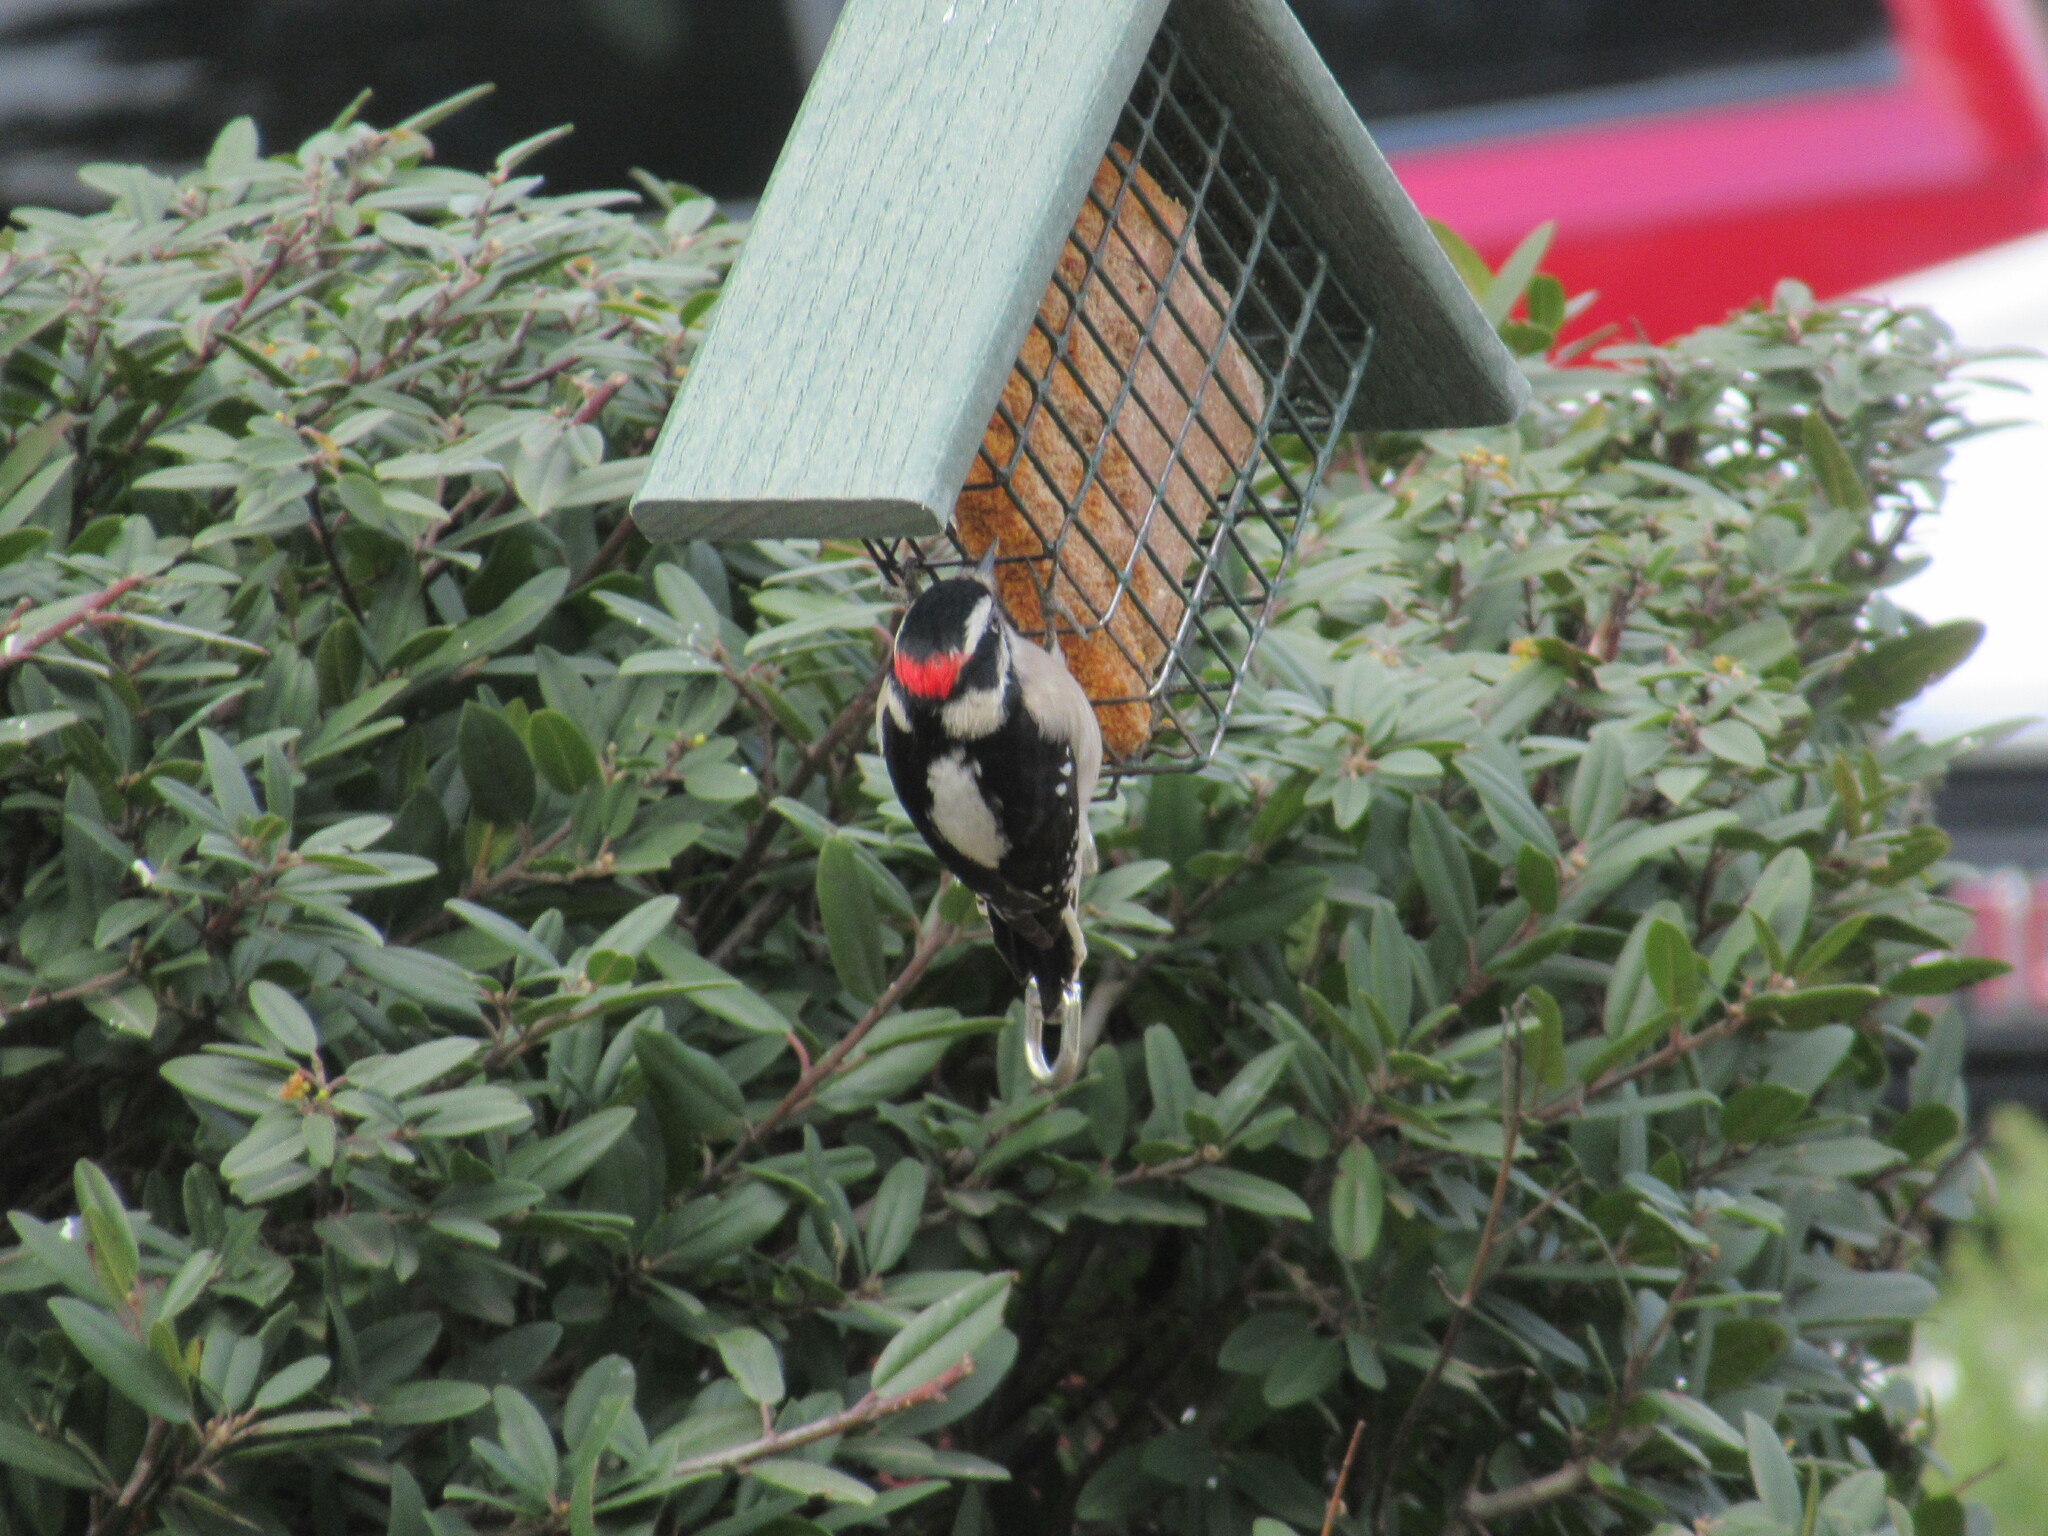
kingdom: Animalia
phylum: Chordata
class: Aves
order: Piciformes
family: Picidae
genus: Dryobates
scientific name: Dryobates pubescens
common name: Downy woodpecker
